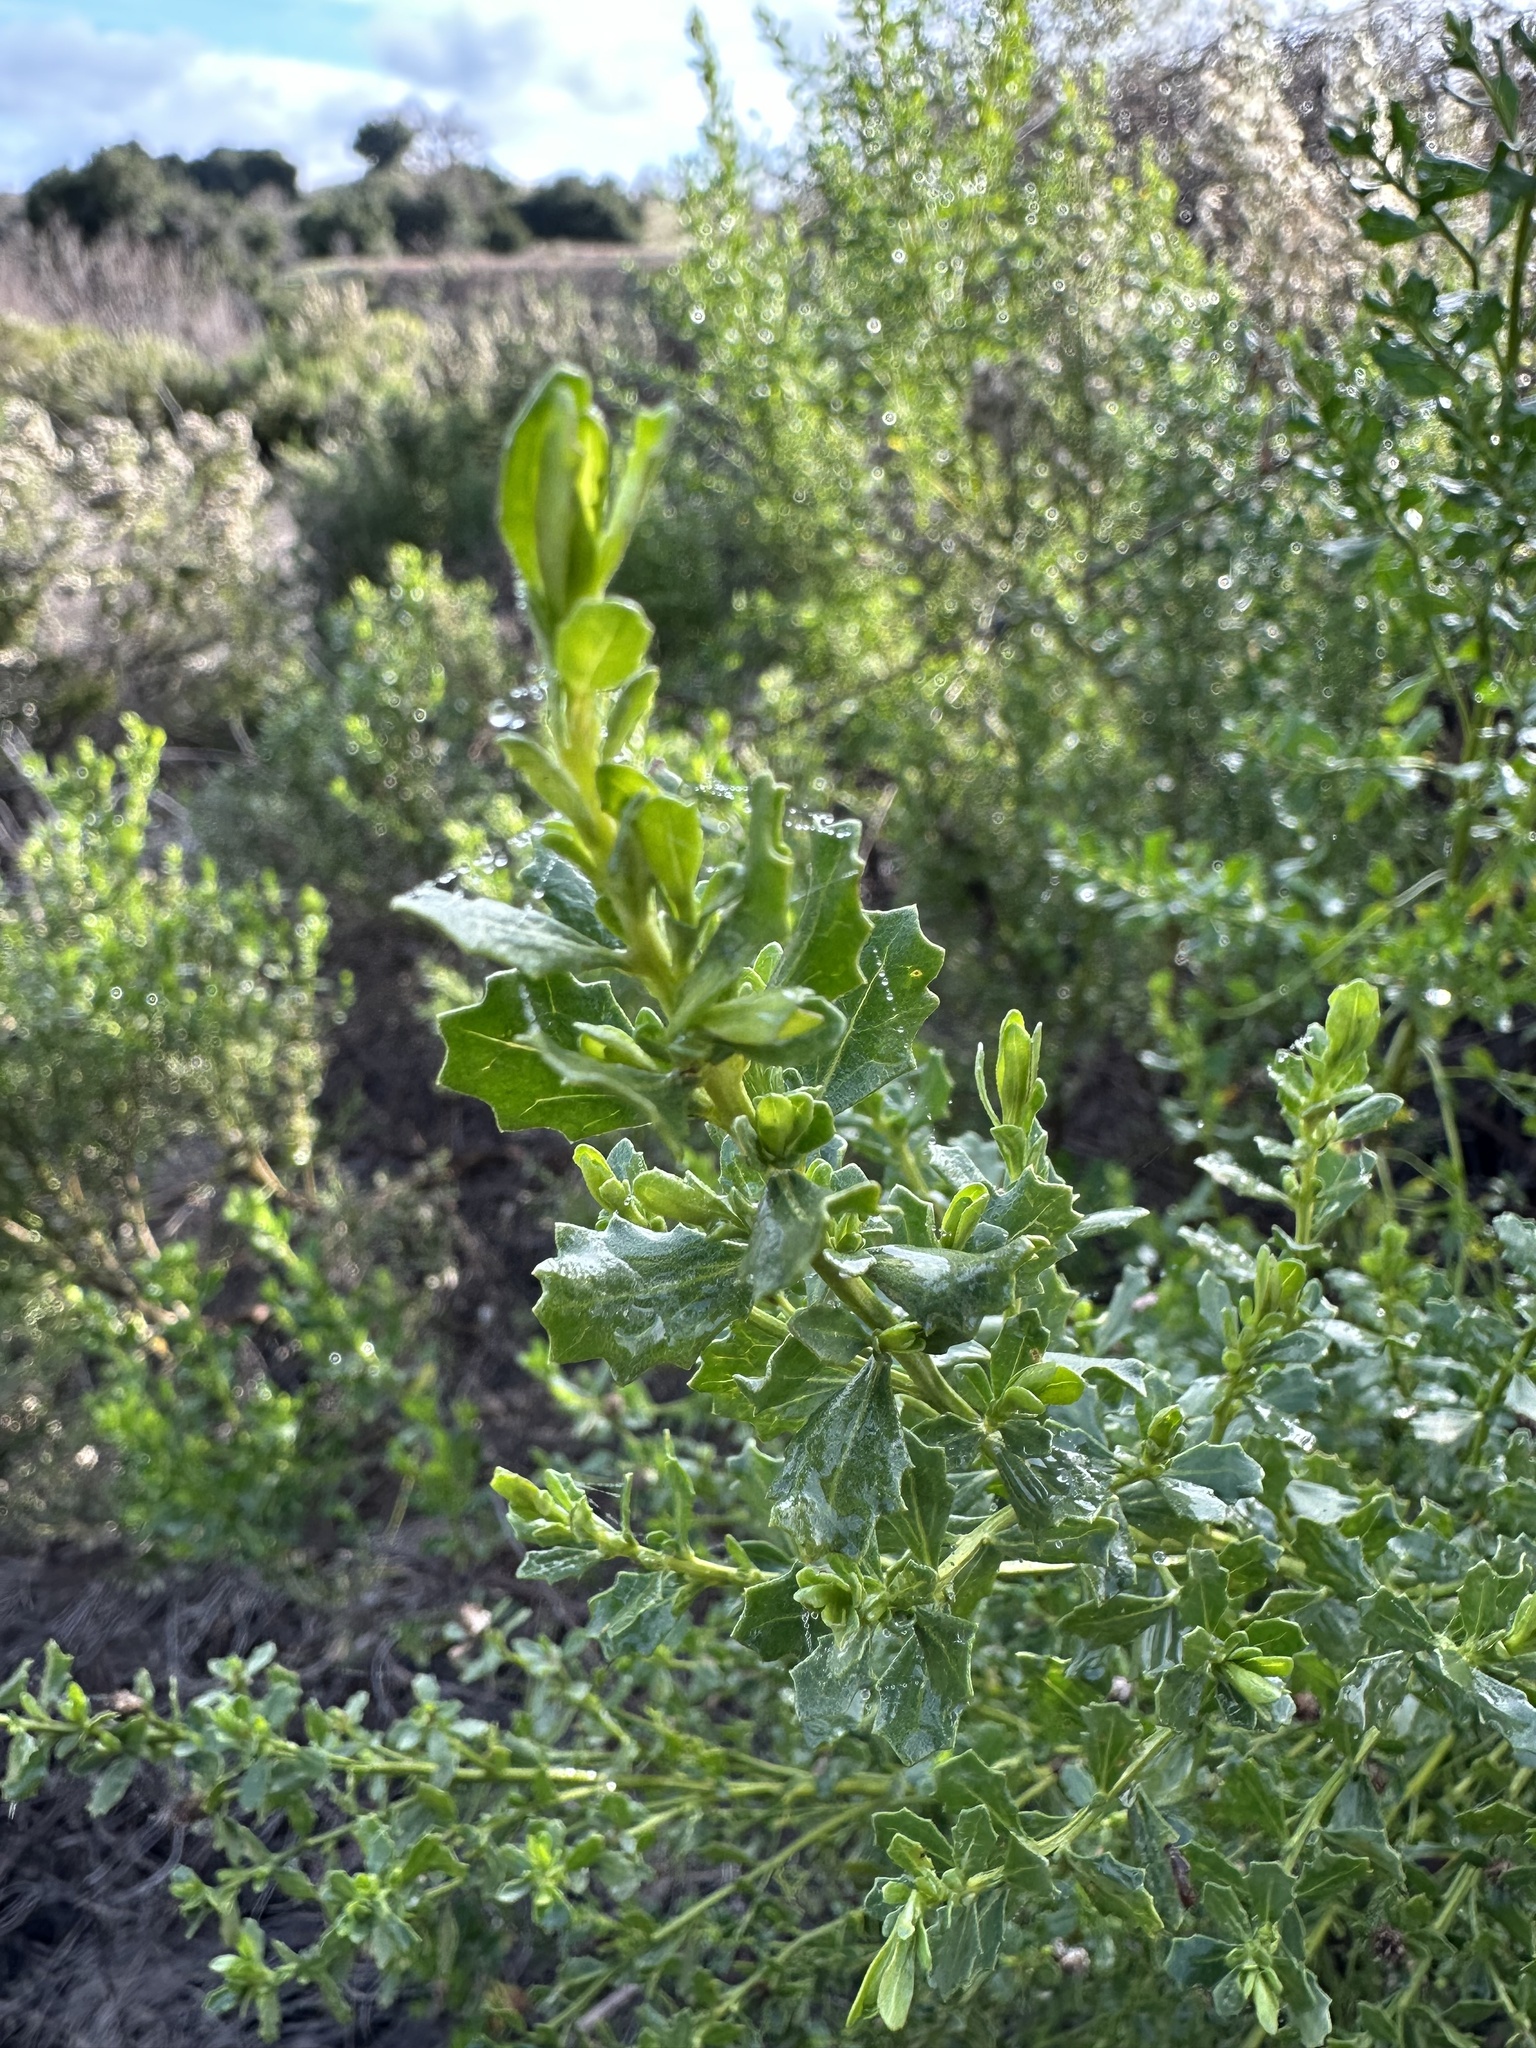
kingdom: Plantae
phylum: Tracheophyta
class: Magnoliopsida
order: Asterales
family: Asteraceae
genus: Baccharis
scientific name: Baccharis pilularis
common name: Coyotebrush
